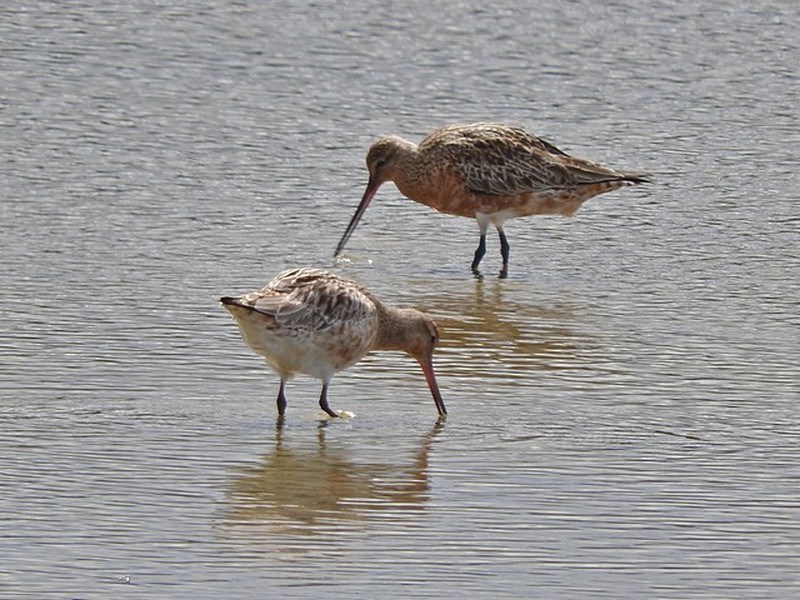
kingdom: Animalia
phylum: Chordata
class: Aves
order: Charadriiformes
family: Scolopacidae
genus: Limosa
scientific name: Limosa lapponica
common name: Bar-tailed godwit
